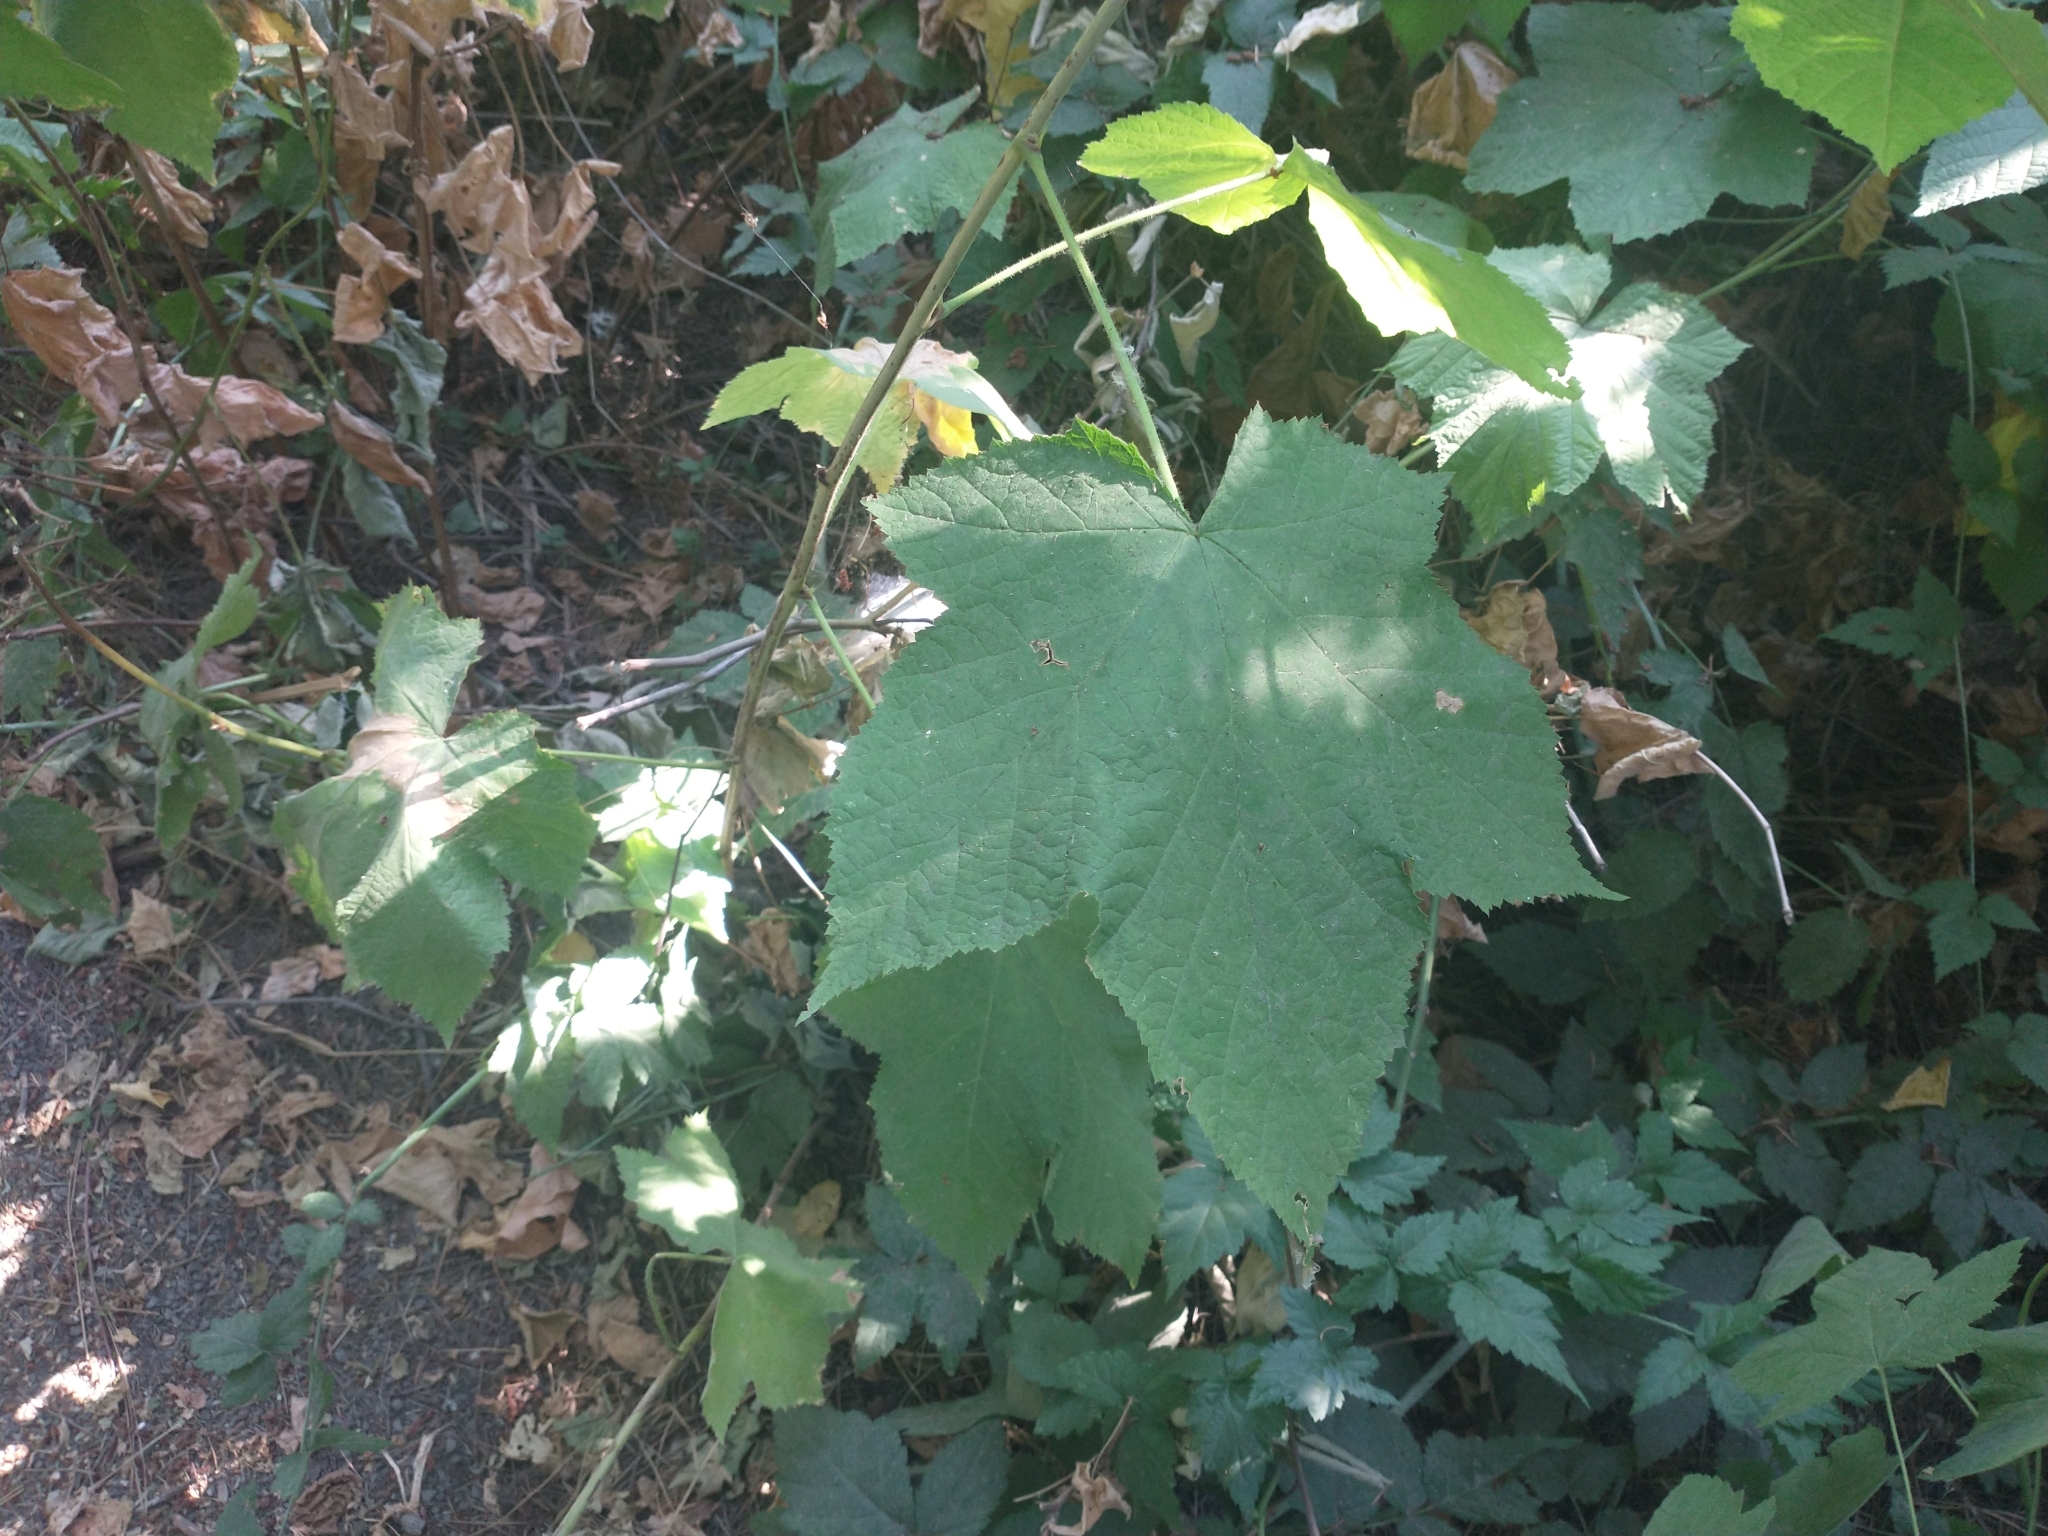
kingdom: Plantae
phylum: Tracheophyta
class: Magnoliopsida
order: Rosales
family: Rosaceae
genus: Rubus
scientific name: Rubus parviflorus
